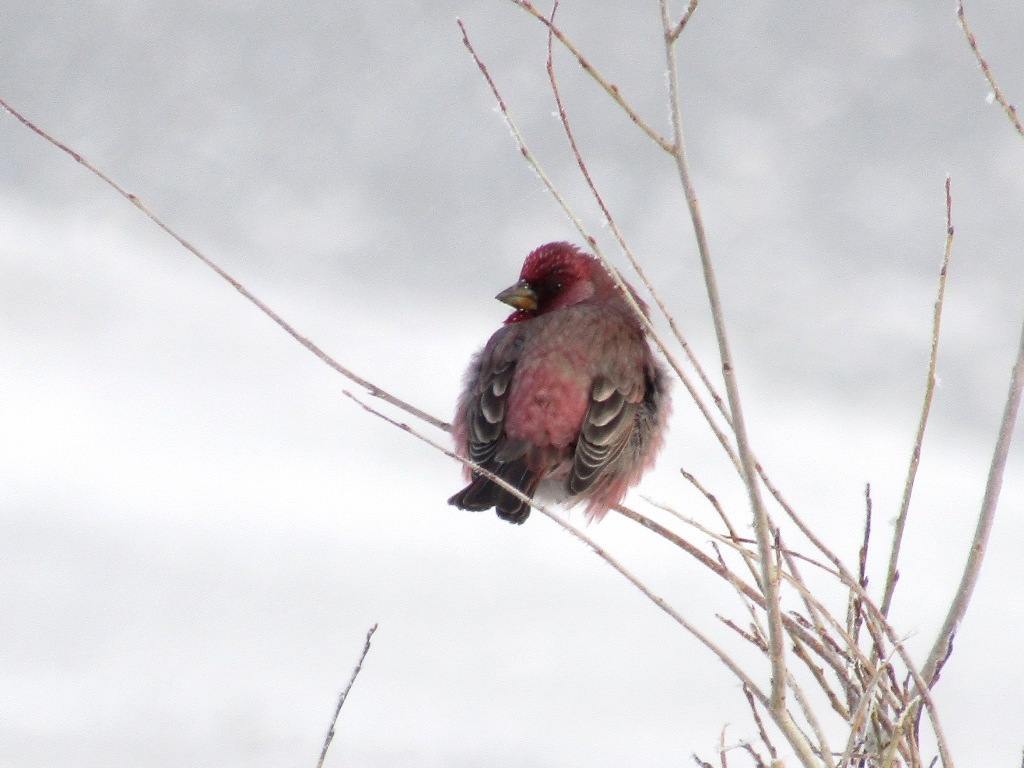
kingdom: Animalia
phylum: Chordata
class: Aves
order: Passeriformes
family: Fringillidae
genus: Carpodacus
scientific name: Carpodacus rubicilla
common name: Great rosefinch
